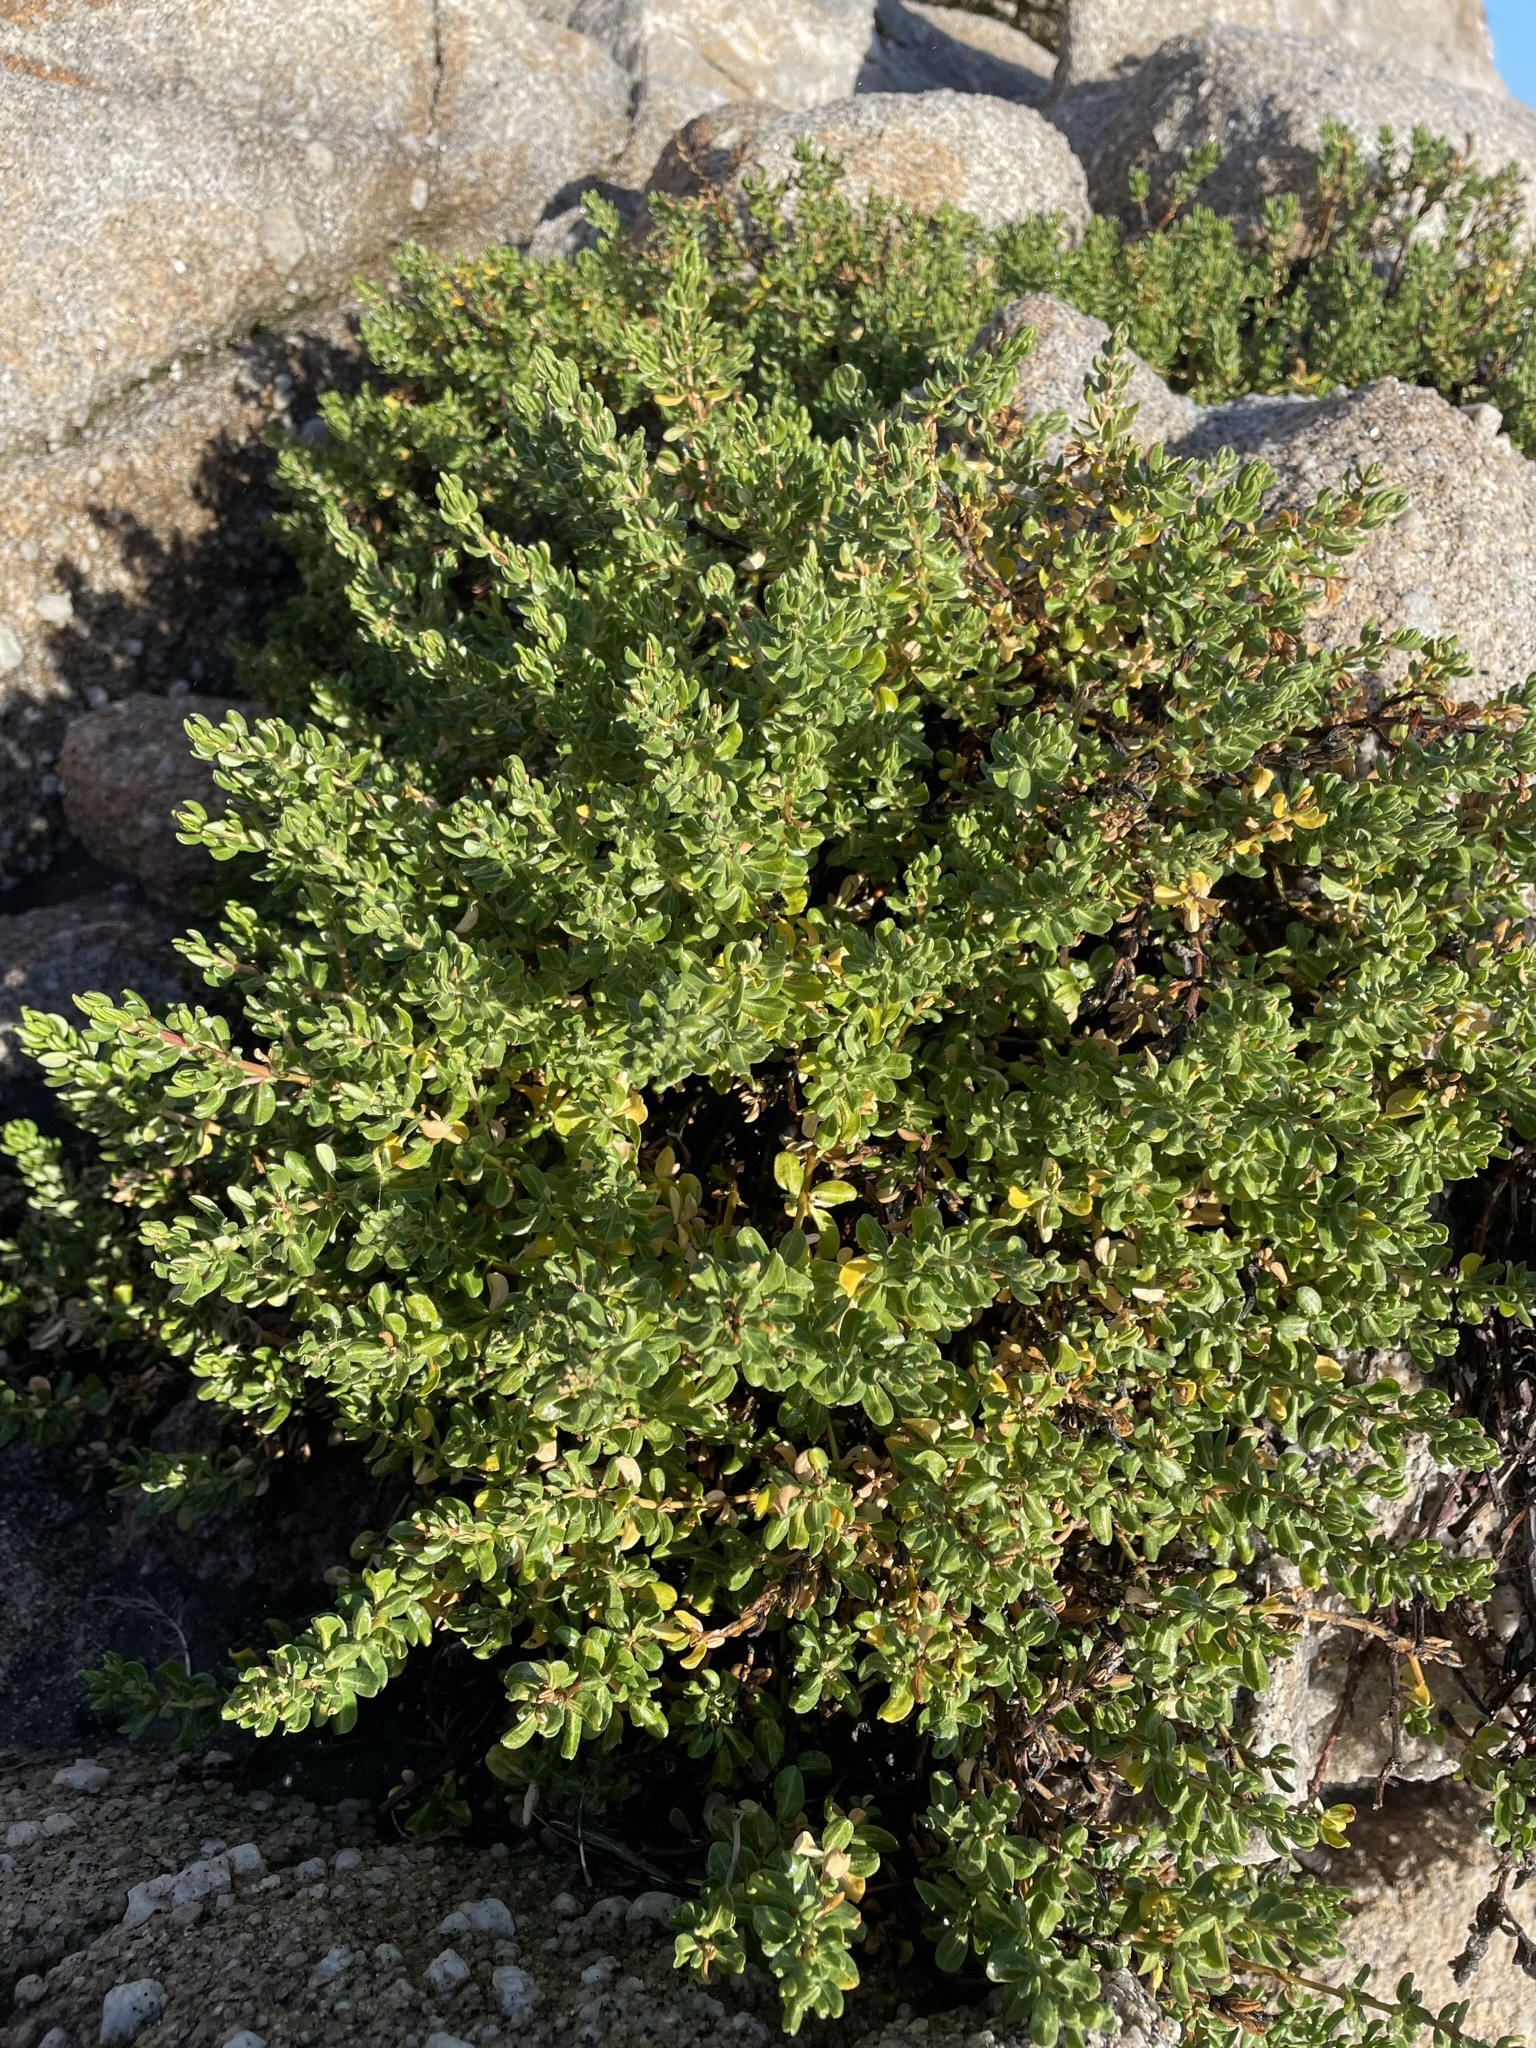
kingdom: Plantae
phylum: Tracheophyta
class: Magnoliopsida
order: Caryophyllales
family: Frankeniaceae
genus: Frankenia
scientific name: Frankenia salina
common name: Alkali seaheath
